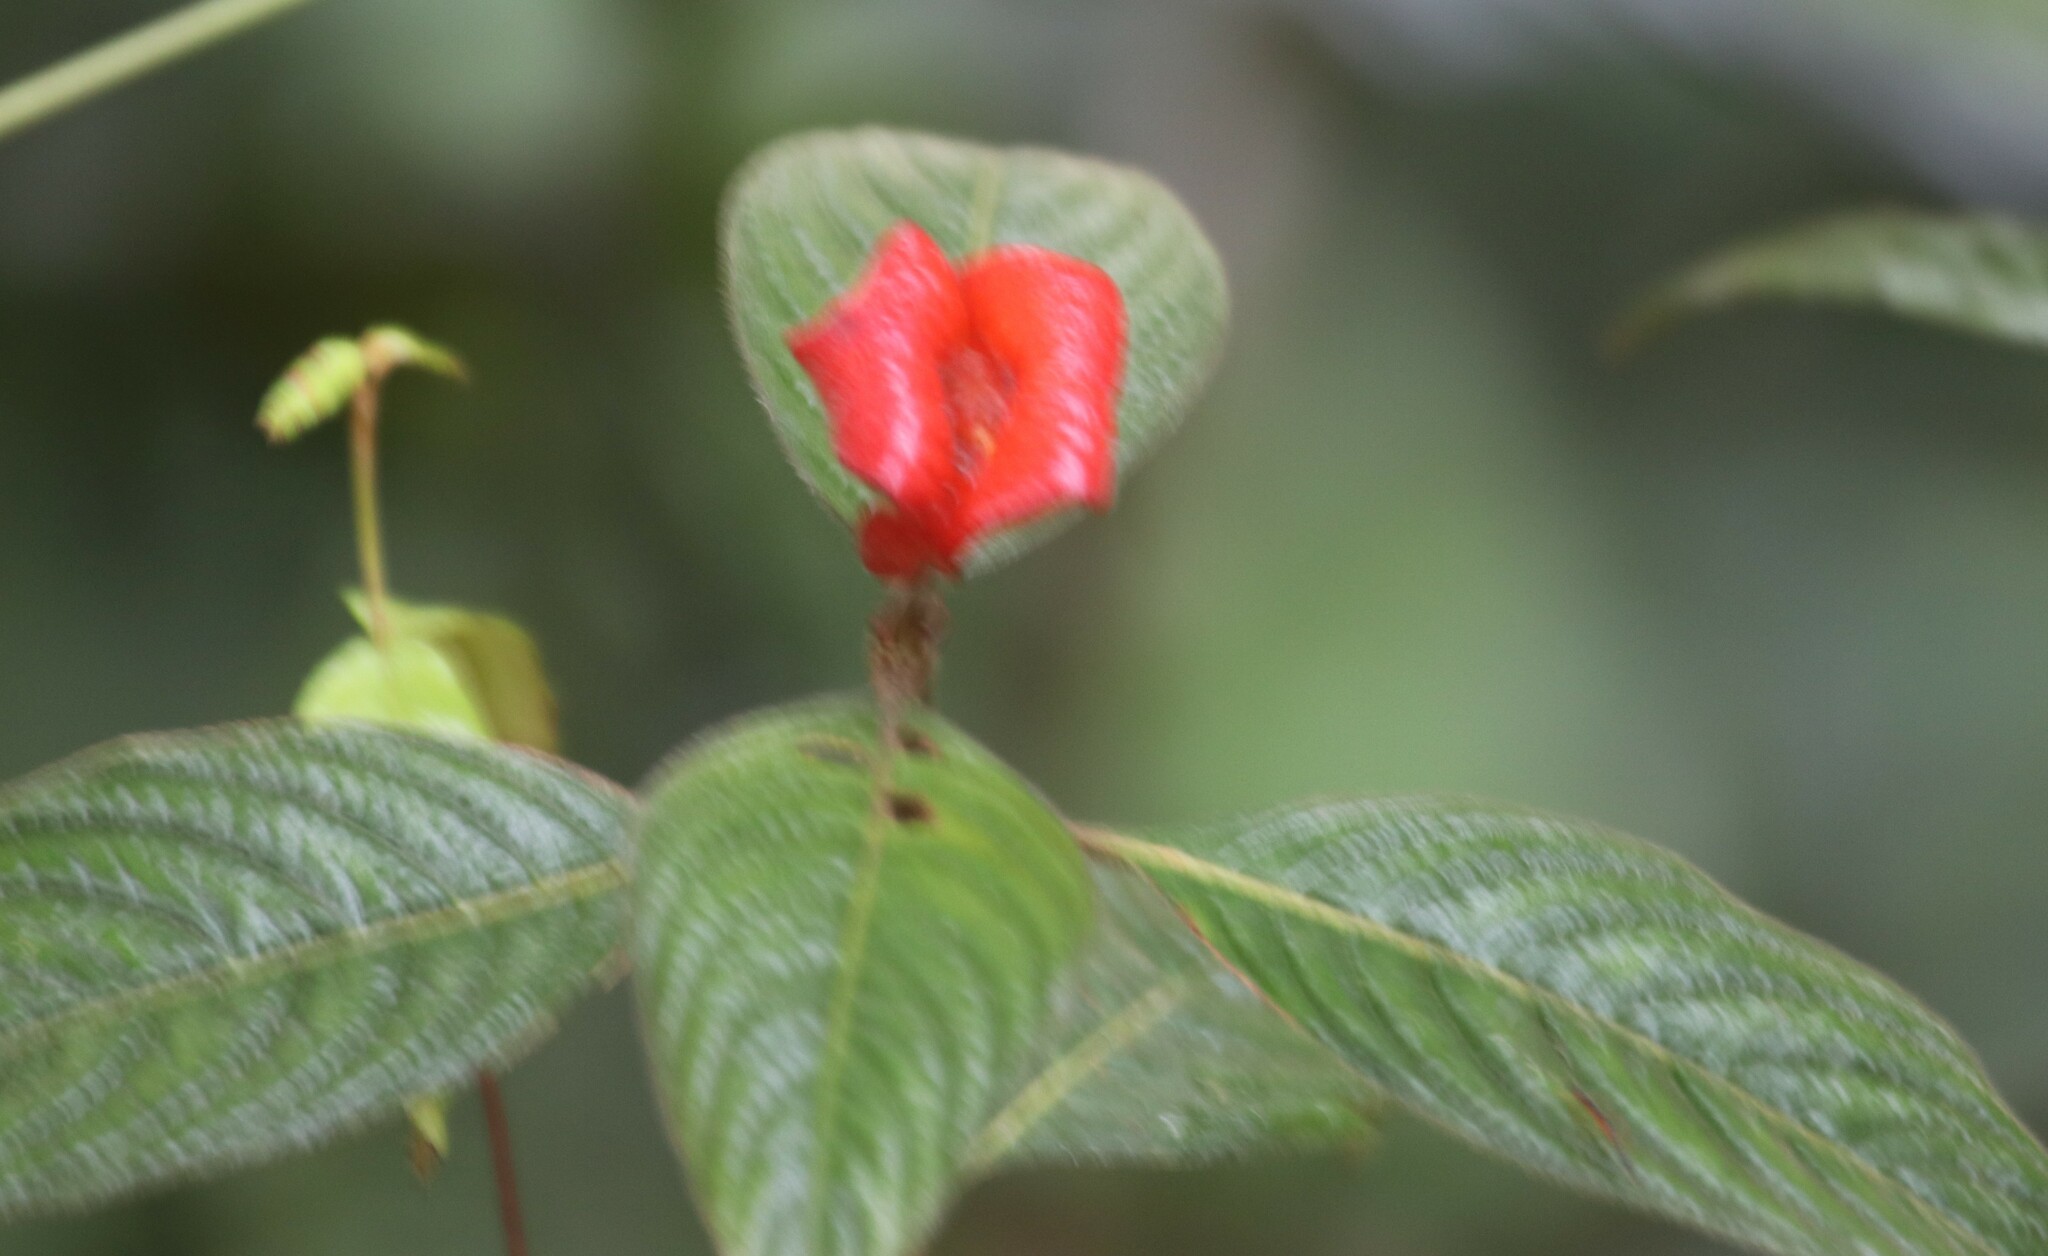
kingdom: Plantae
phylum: Tracheophyta
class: Magnoliopsida
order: Gentianales
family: Rubiaceae
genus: Palicourea
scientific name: Palicourea tomentosa
